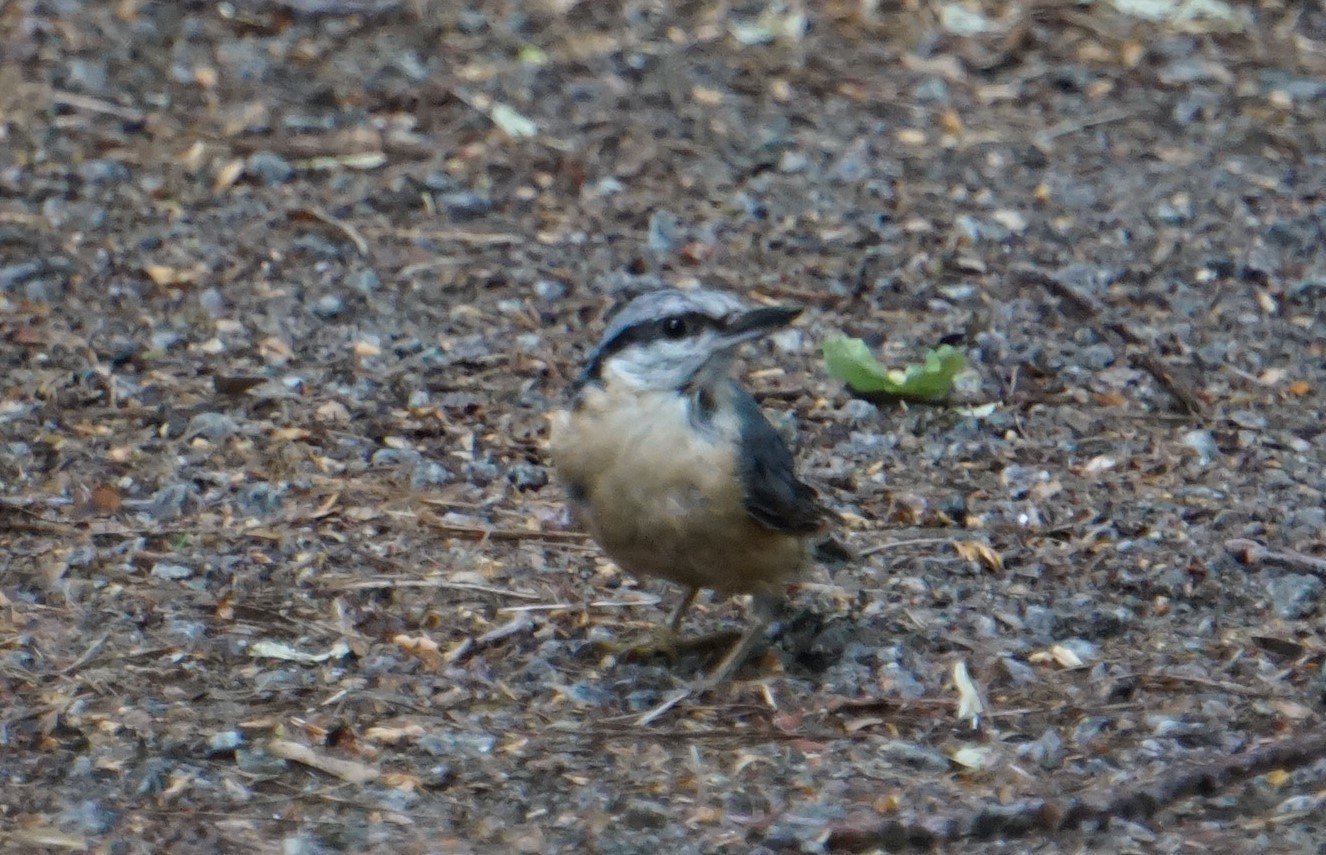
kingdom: Animalia
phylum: Chordata
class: Aves
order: Passeriformes
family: Sittidae
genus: Sitta
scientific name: Sitta europaea
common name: Eurasian nuthatch
